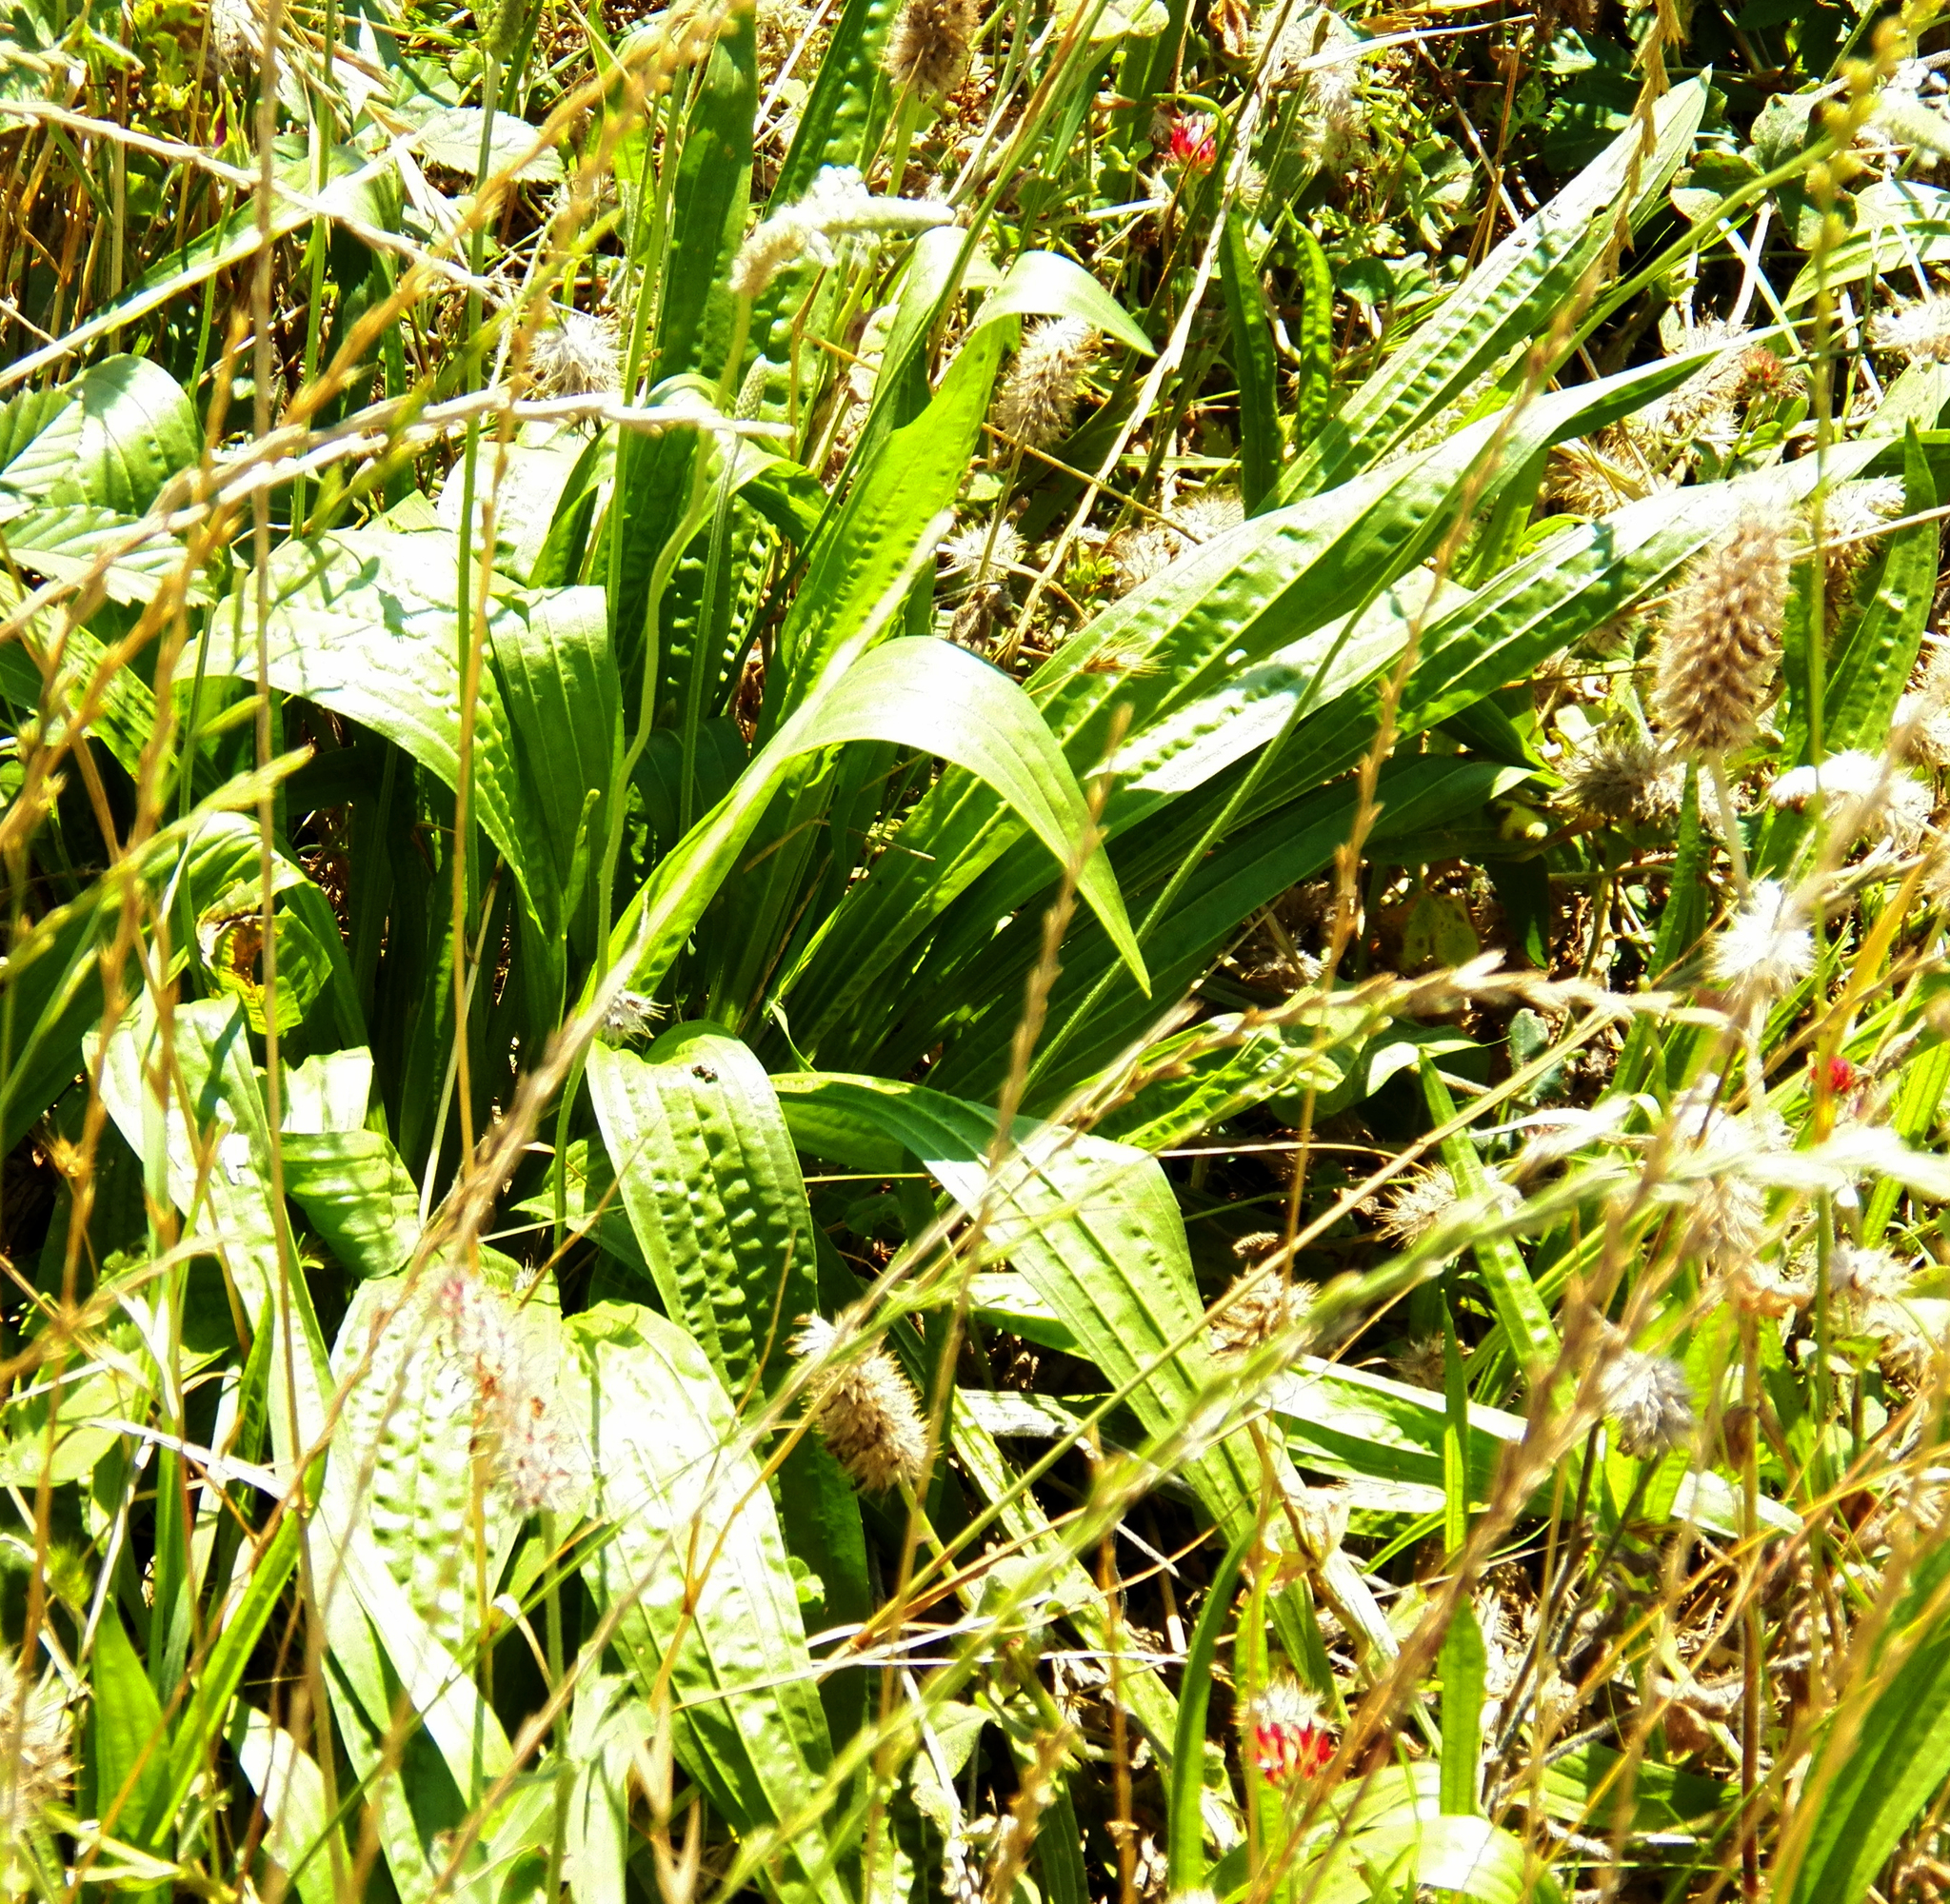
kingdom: Plantae
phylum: Tracheophyta
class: Magnoliopsida
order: Lamiales
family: Plantaginaceae
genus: Plantago
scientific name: Plantago lanceolata
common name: Ribwort plantain
